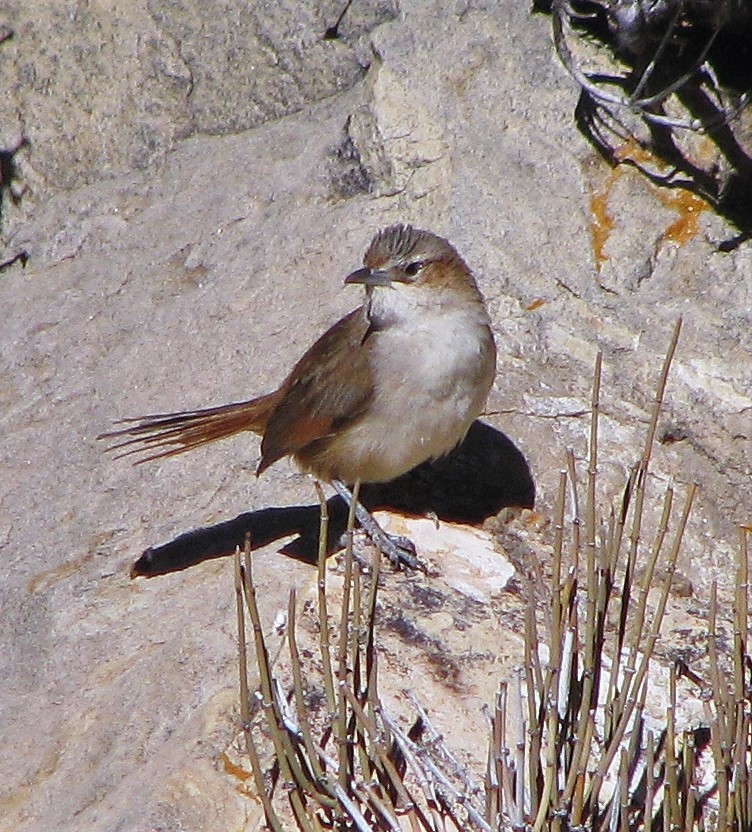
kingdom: Animalia
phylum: Chordata
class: Aves
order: Passeriformes
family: Furnariidae
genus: Phacellodomus
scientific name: Phacellodomus striaticeps
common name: Streak-fronted thornbird
